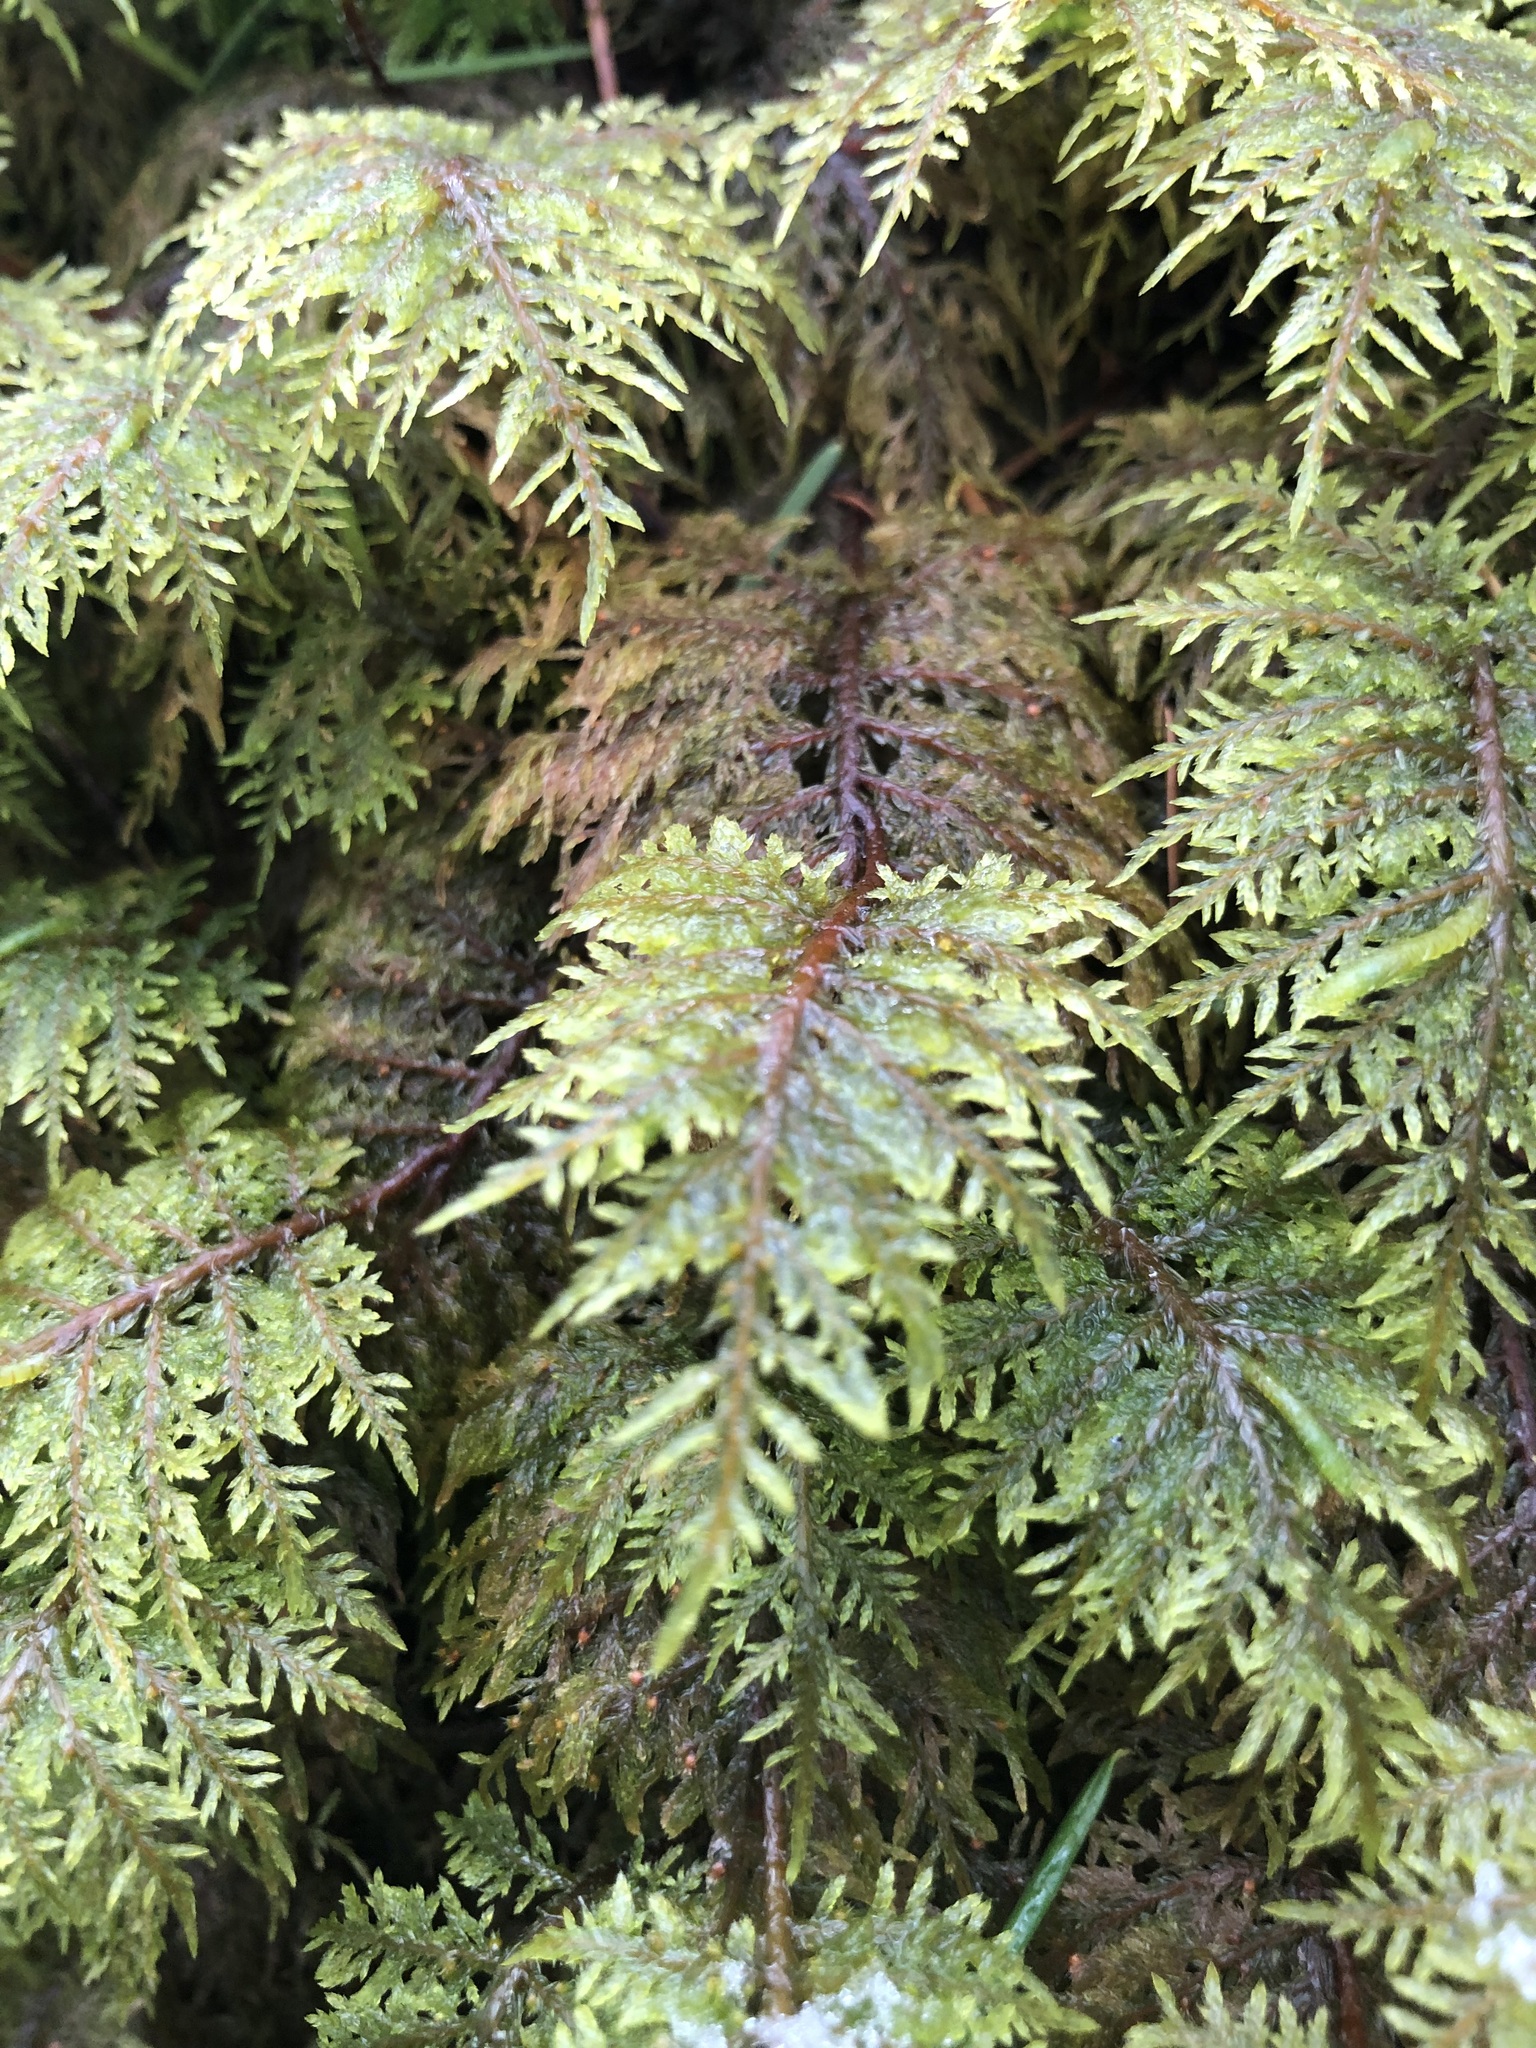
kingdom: Plantae
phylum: Bryophyta
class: Bryopsida
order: Hypnales
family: Hylocomiaceae
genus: Hylocomium
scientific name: Hylocomium splendens
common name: Stairstep moss
